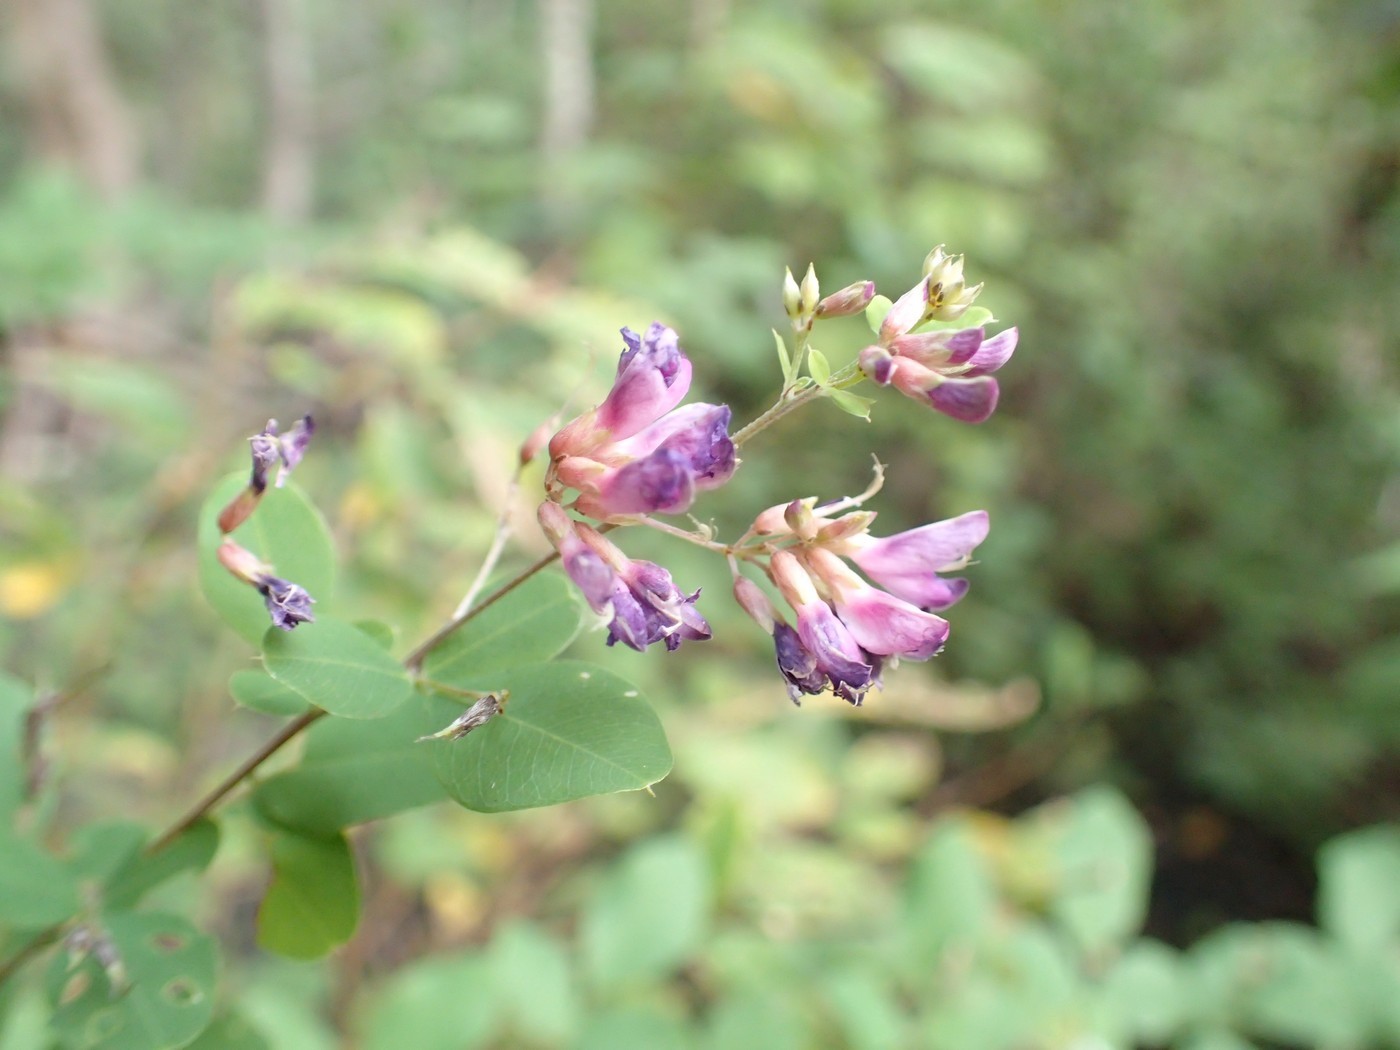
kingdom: Plantae
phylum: Tracheophyta
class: Magnoliopsida
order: Fabales
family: Fabaceae
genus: Lespedeza
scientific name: Lespedeza bicolor
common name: Shrub lespedeza
